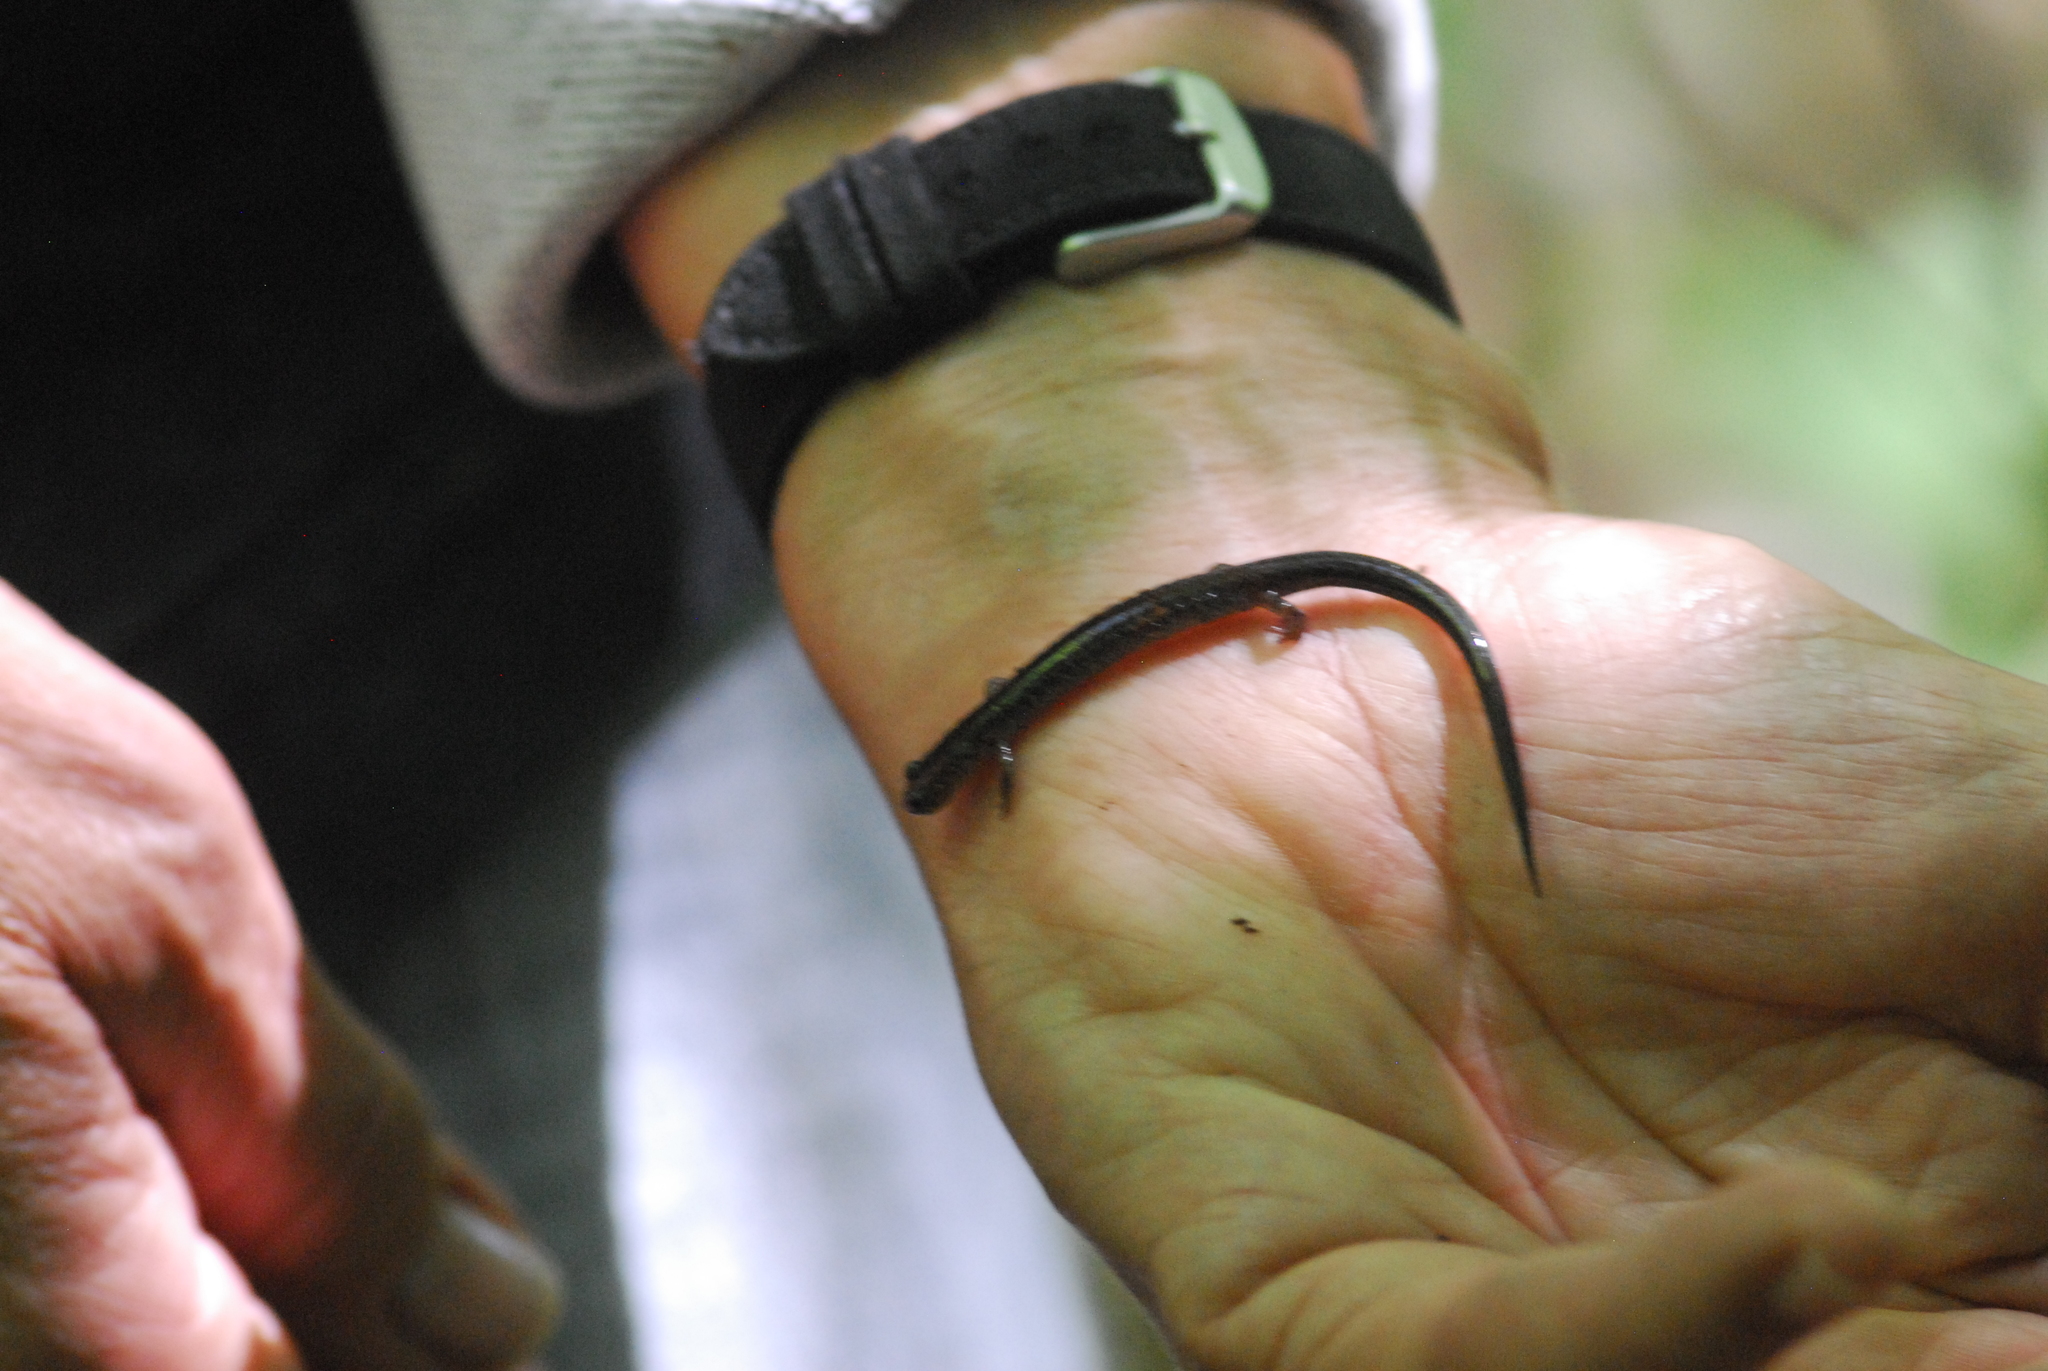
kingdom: Animalia
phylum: Chordata
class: Amphibia
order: Caudata
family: Plethodontidae
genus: Plethodon
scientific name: Plethodon cinereus
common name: Redback salamander
